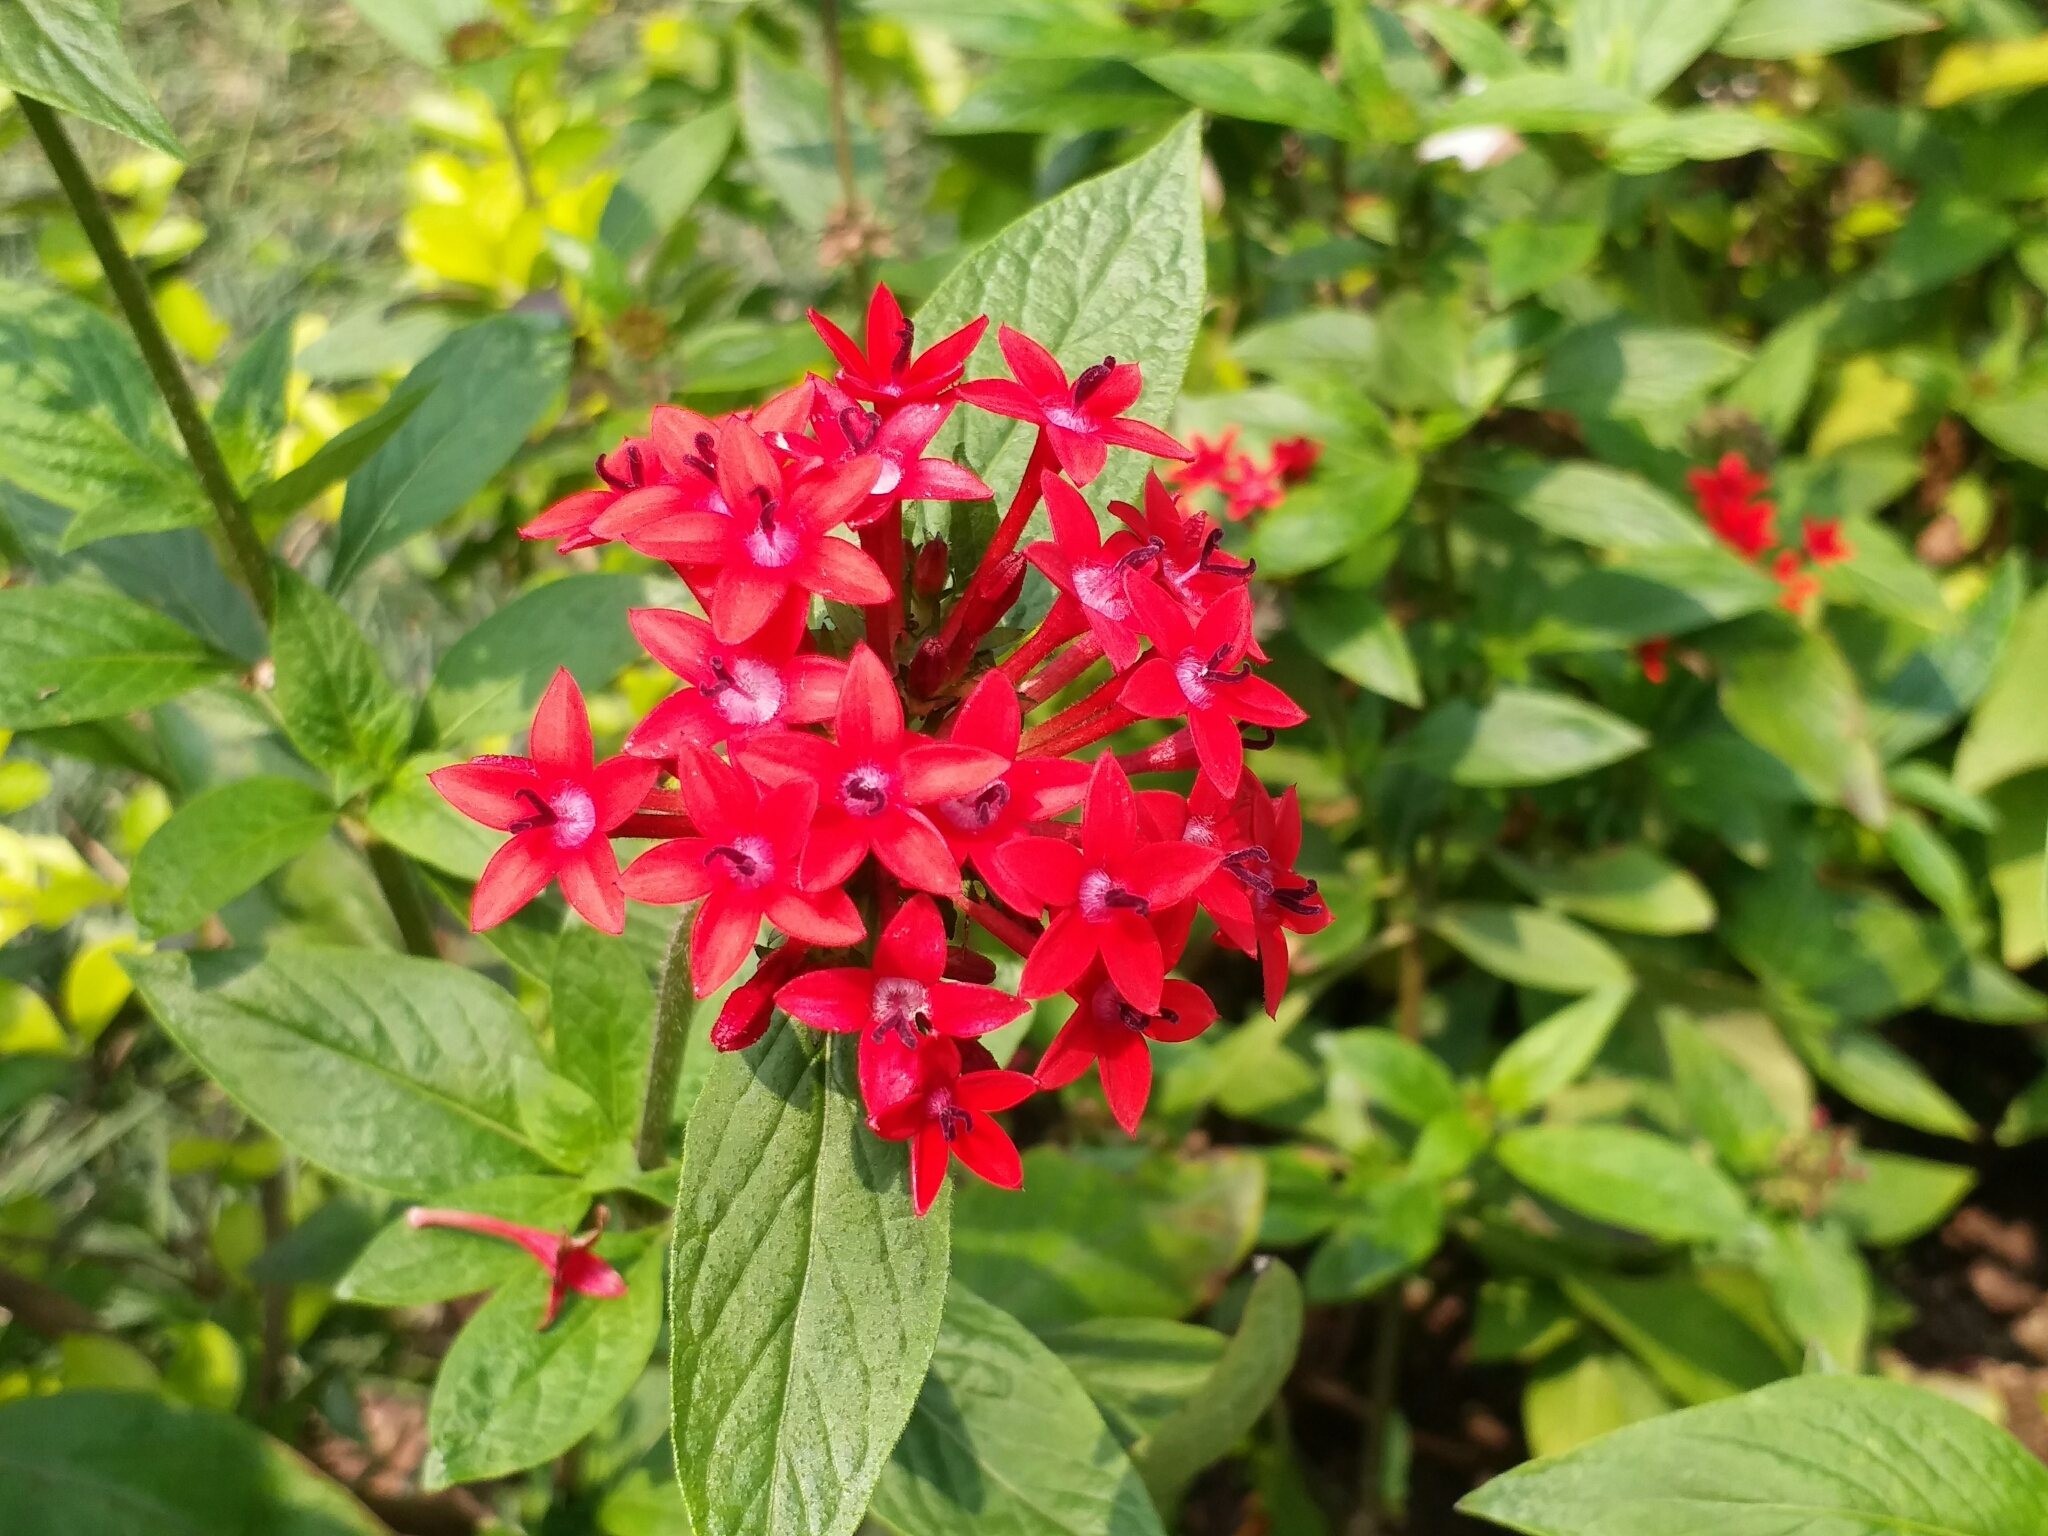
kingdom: Plantae
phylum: Tracheophyta
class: Magnoliopsida
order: Gentianales
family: Rubiaceae
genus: Pentas
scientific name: Pentas lanceolata
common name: Egyptian starcluster
